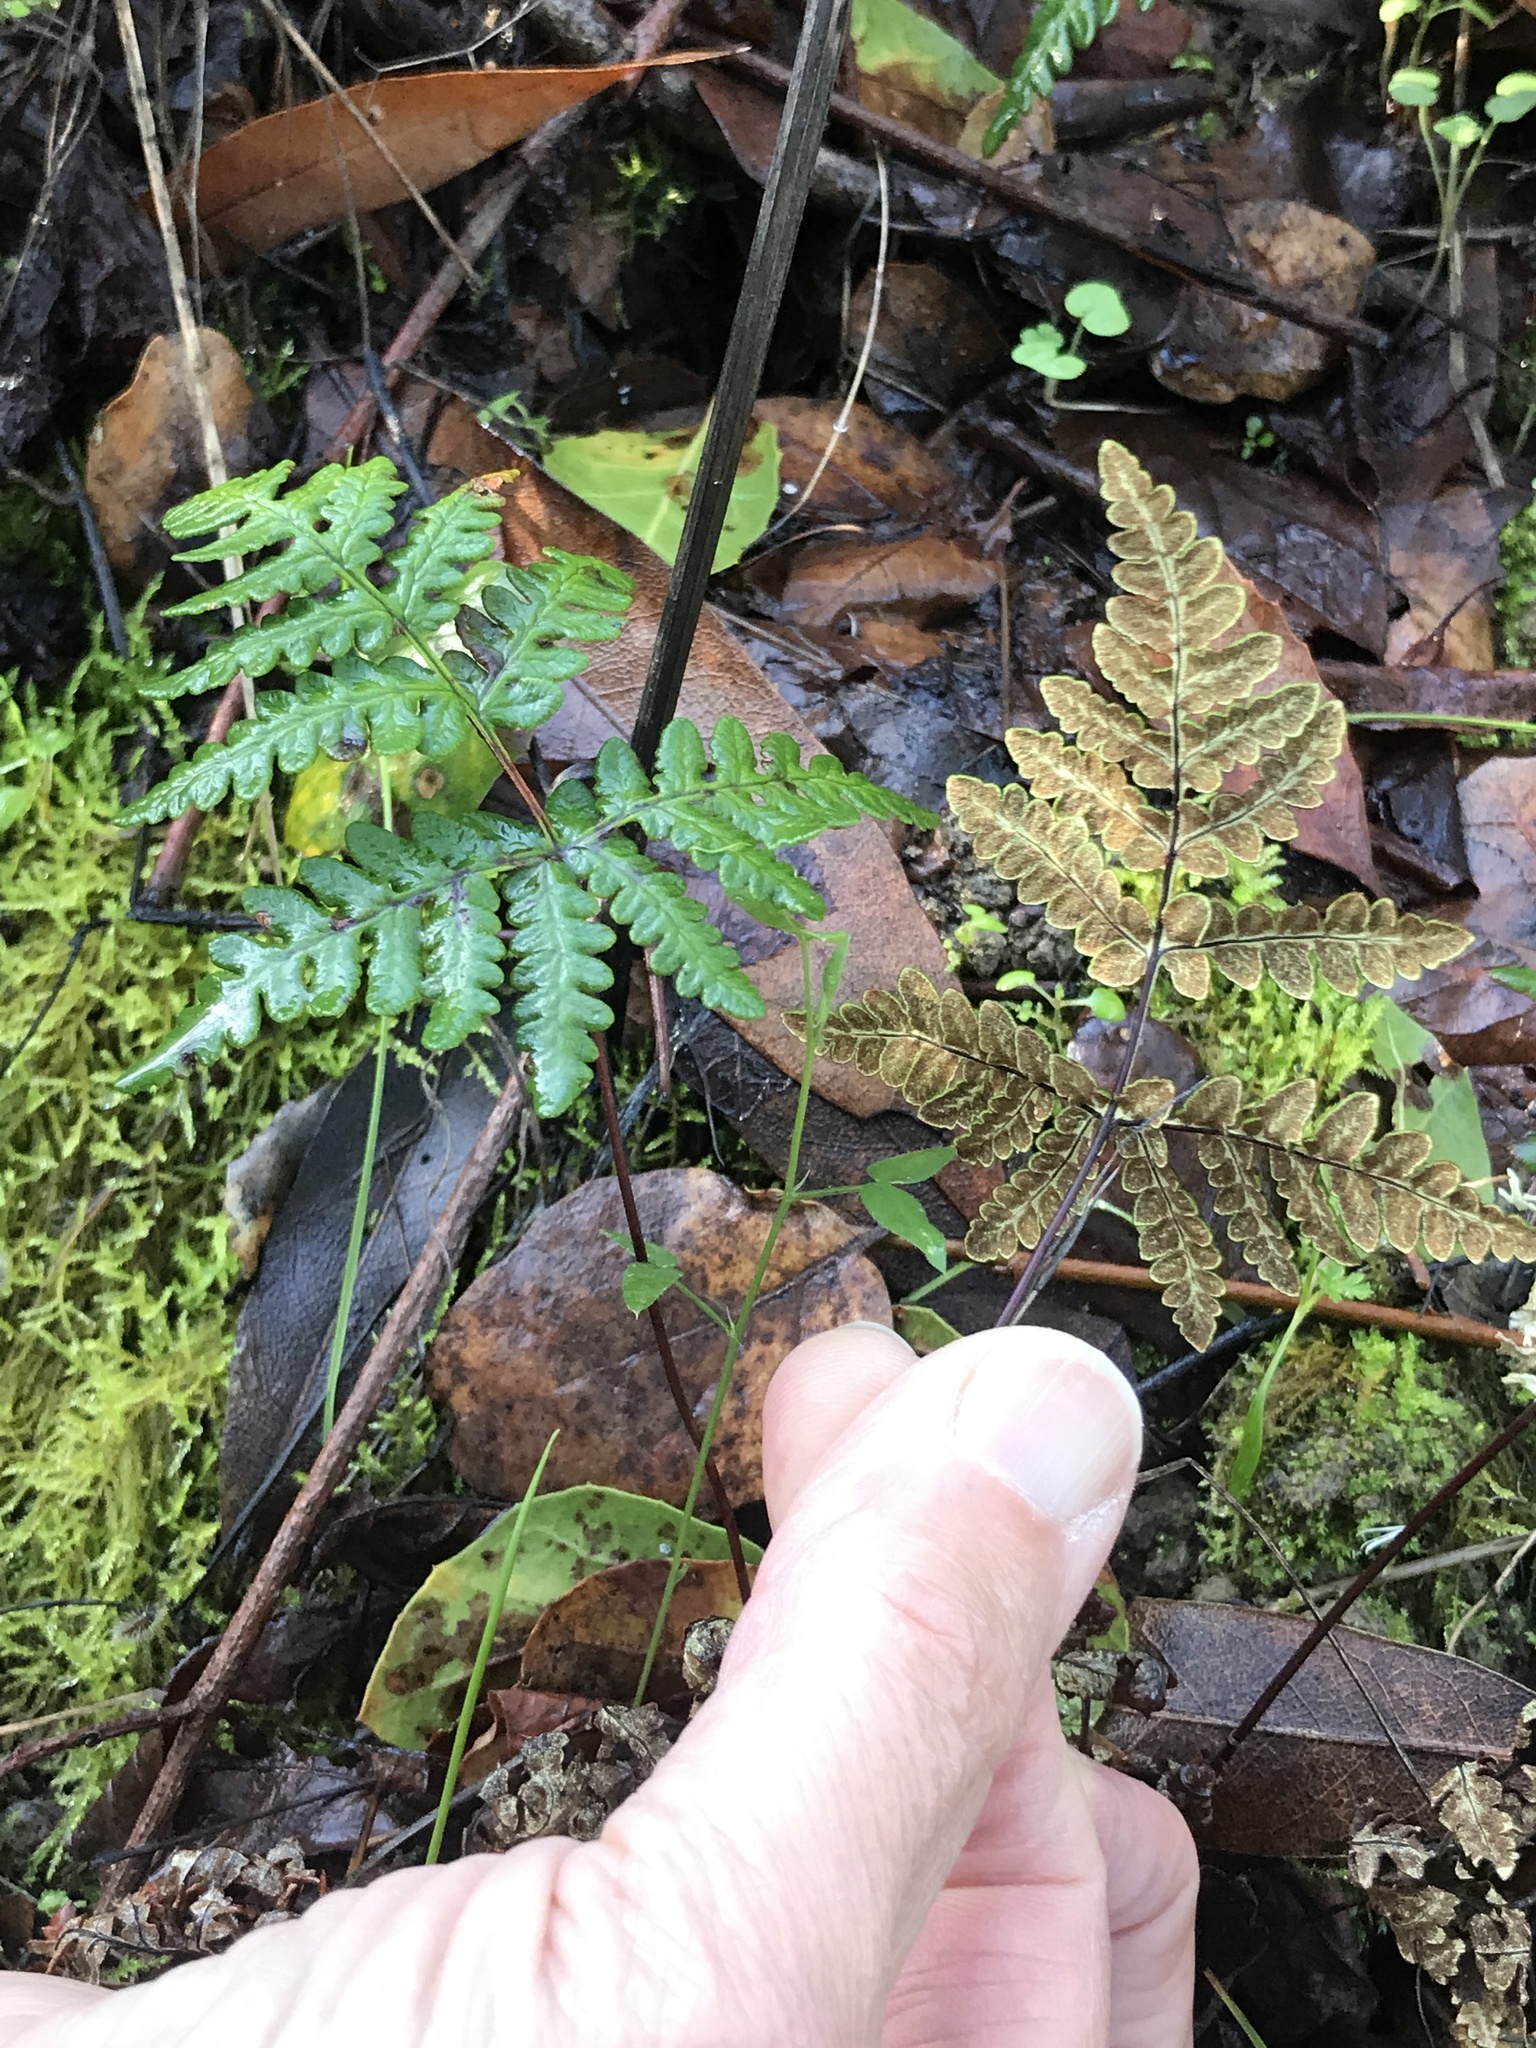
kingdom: Plantae
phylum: Tracheophyta
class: Polypodiopsida
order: Polypodiales
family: Pteridaceae
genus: Pentagramma
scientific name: Pentagramma triangularis
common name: Gold fern
